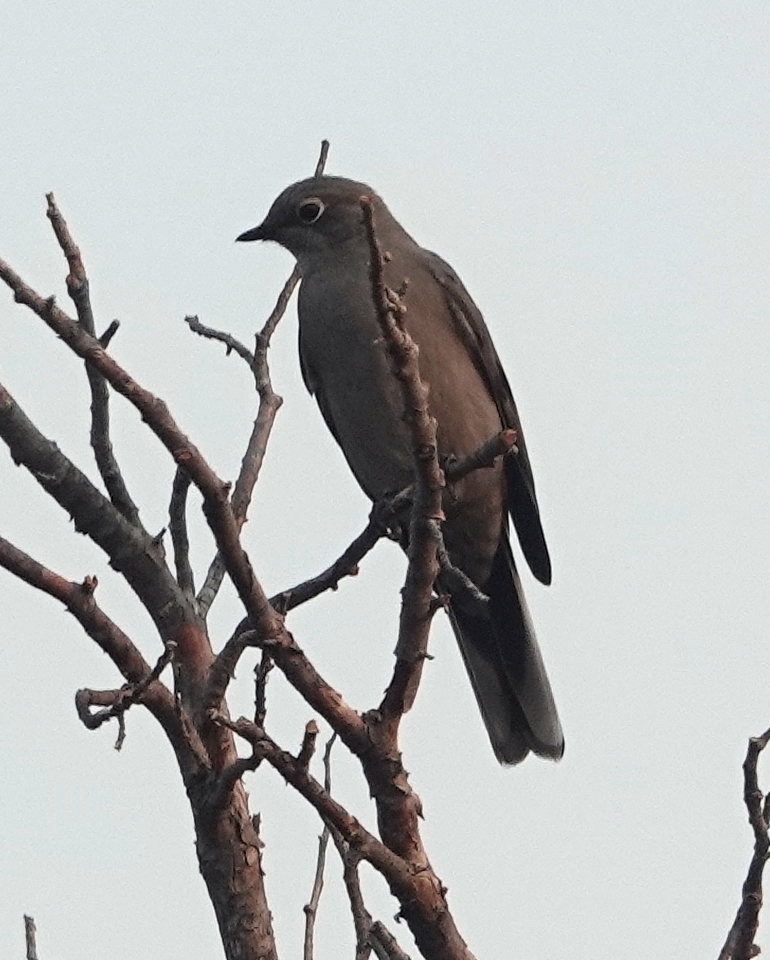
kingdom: Animalia
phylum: Chordata
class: Aves
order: Passeriformes
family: Turdidae
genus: Myadestes
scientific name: Myadestes townsendi
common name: Townsend's solitaire
